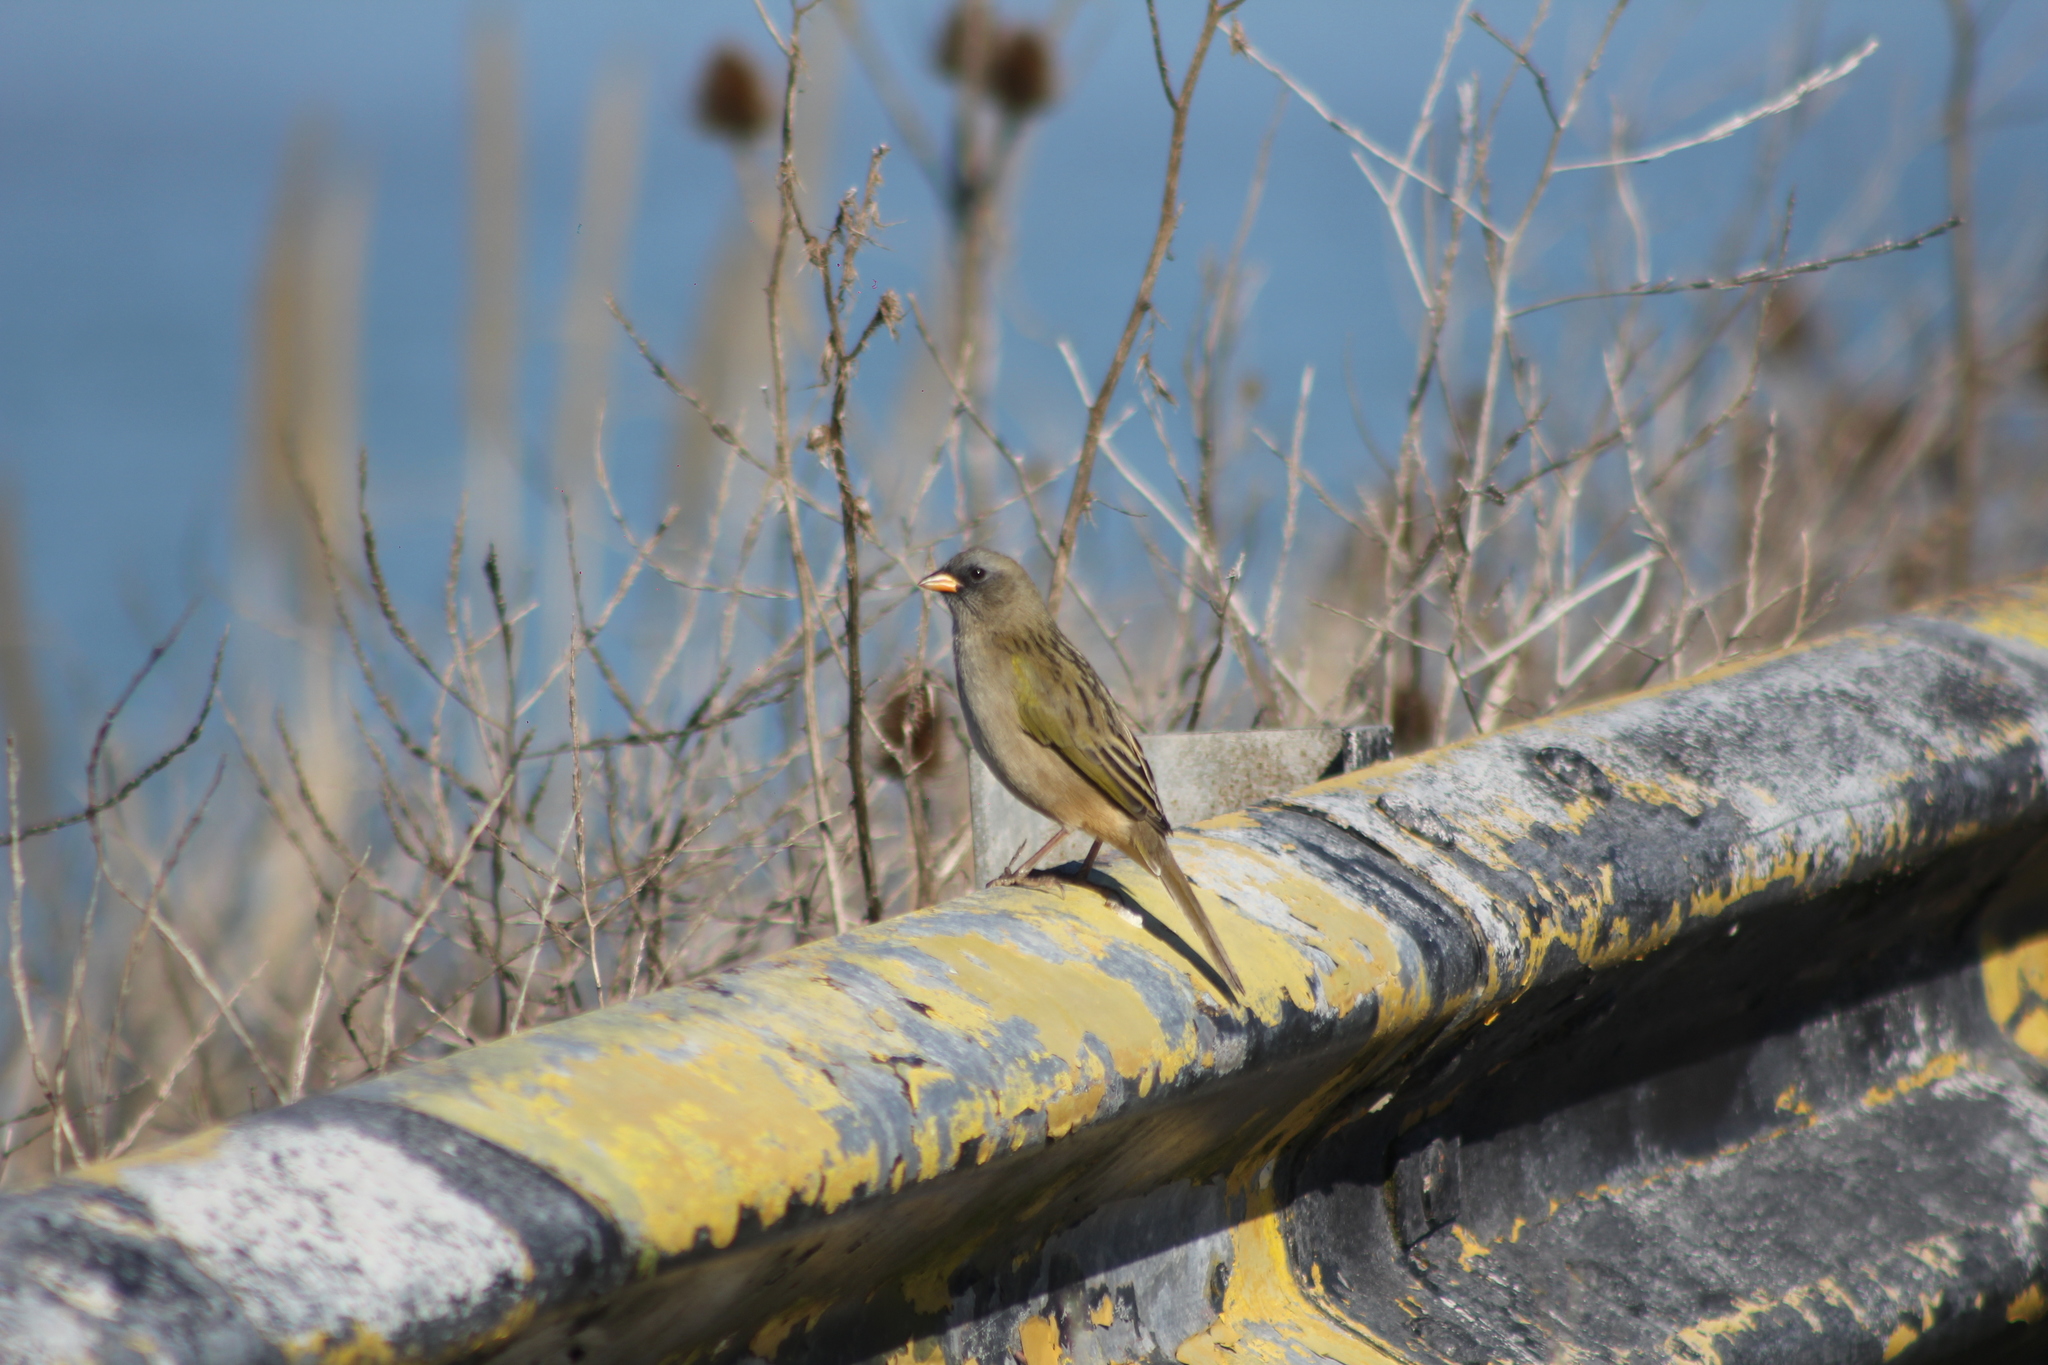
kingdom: Animalia
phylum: Chordata
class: Aves
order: Passeriformes
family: Thraupidae
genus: Embernagra
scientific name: Embernagra platensis
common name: Pampa finch
